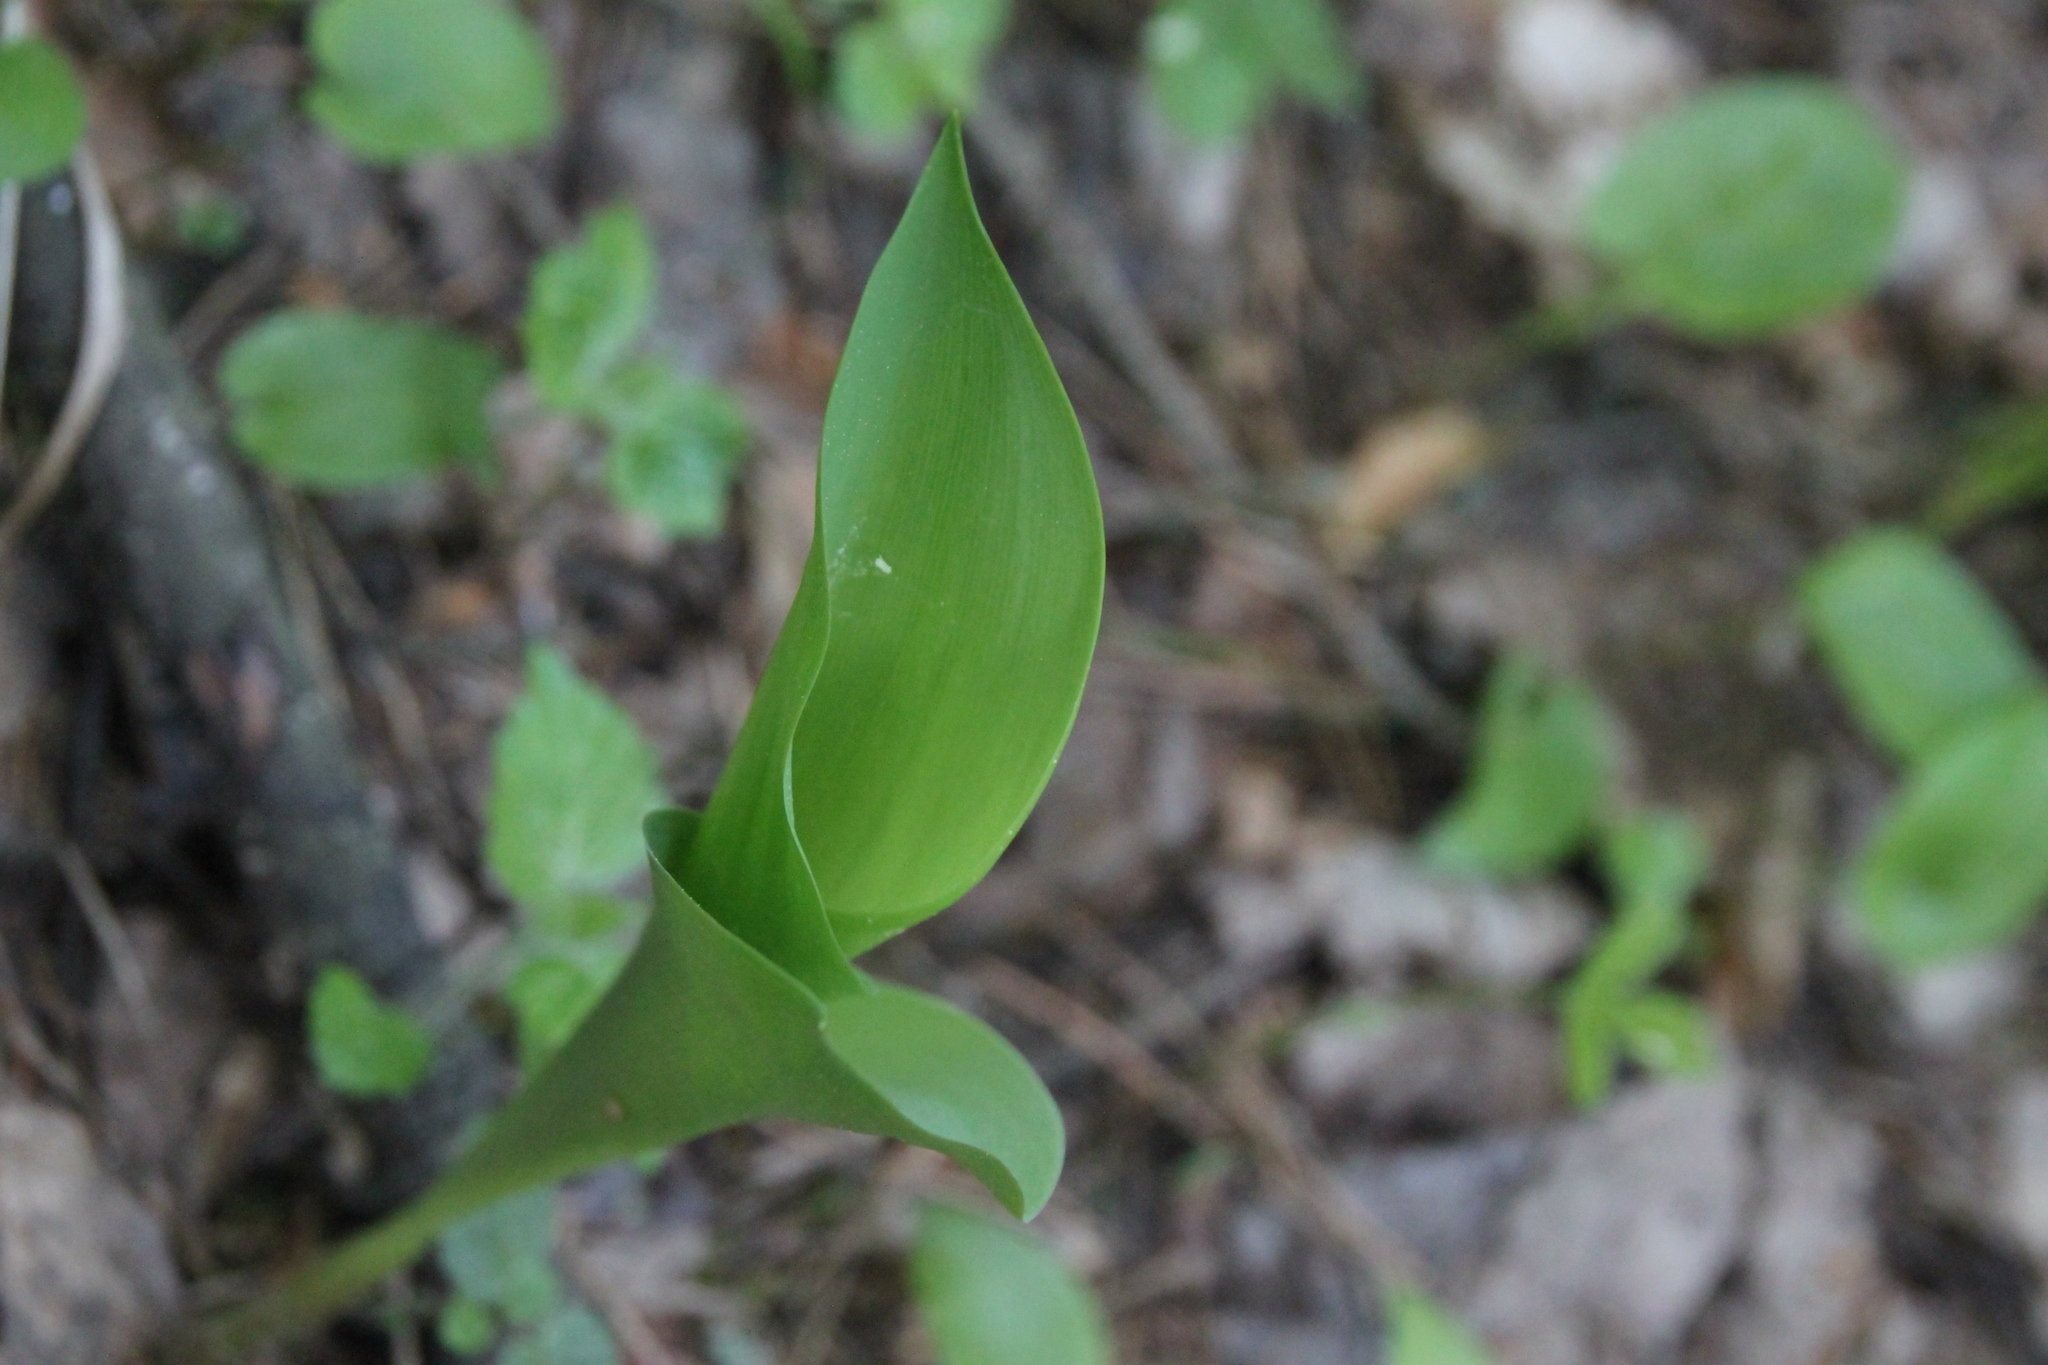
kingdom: Plantae
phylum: Tracheophyta
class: Liliopsida
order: Asparagales
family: Asparagaceae
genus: Convallaria
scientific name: Convallaria majalis
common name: Lily-of-the-valley
